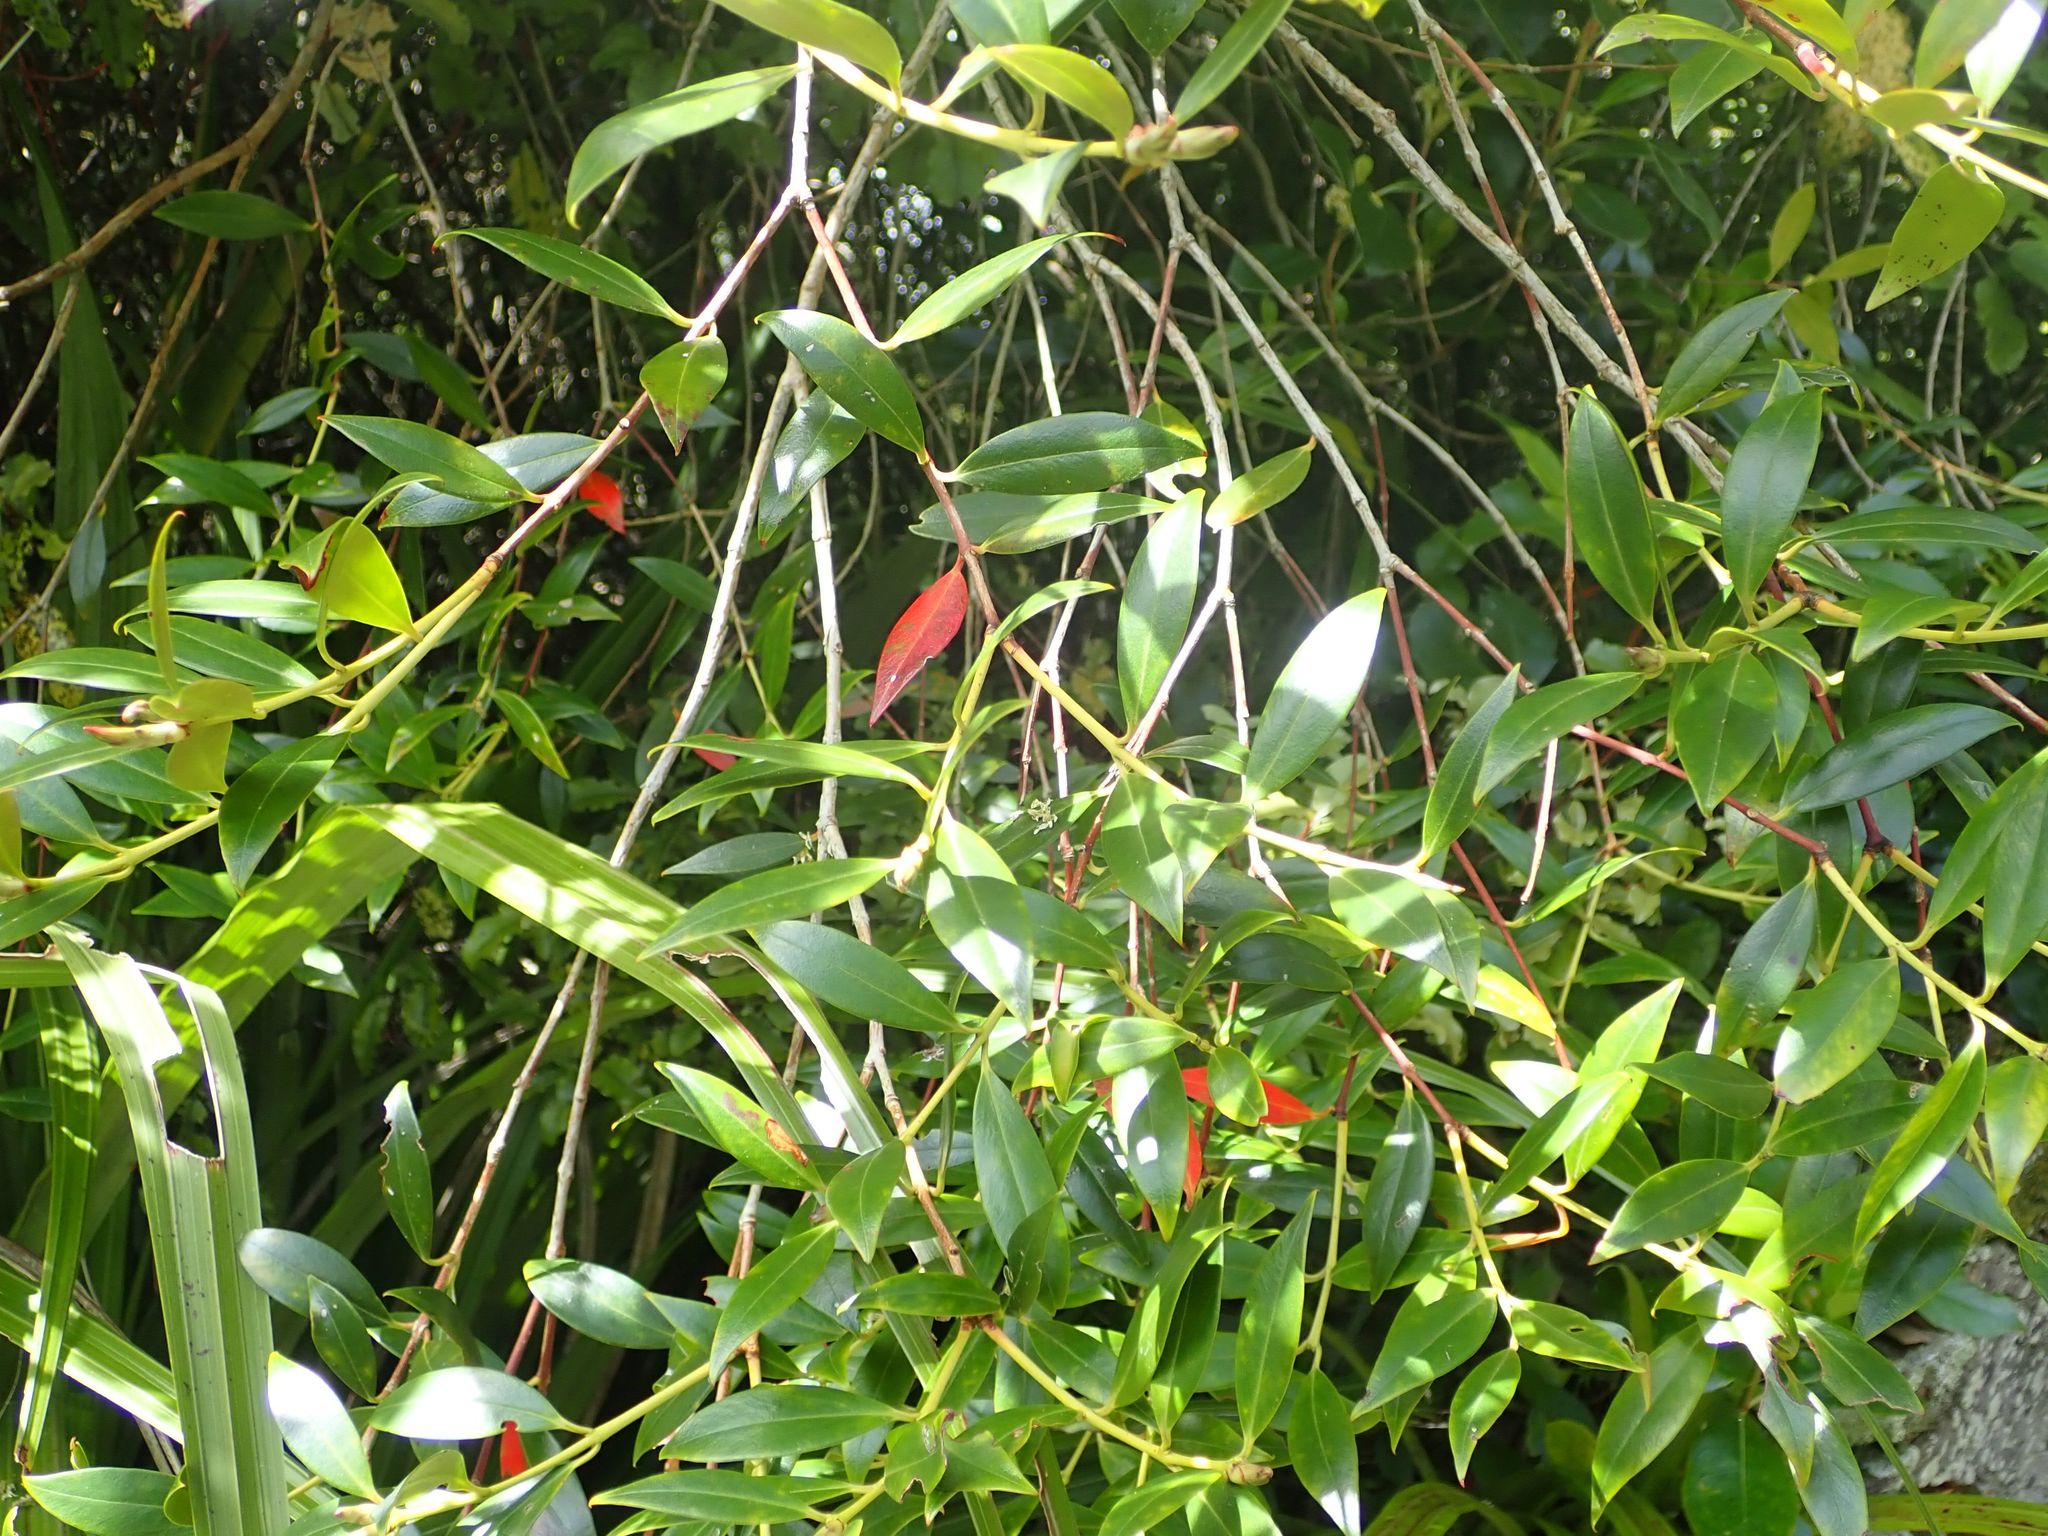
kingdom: Plantae
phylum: Tracheophyta
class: Magnoliopsida
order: Myrtales
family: Myrtaceae
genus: Metrosideros
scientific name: Metrosideros umbellata
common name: Southern rata
